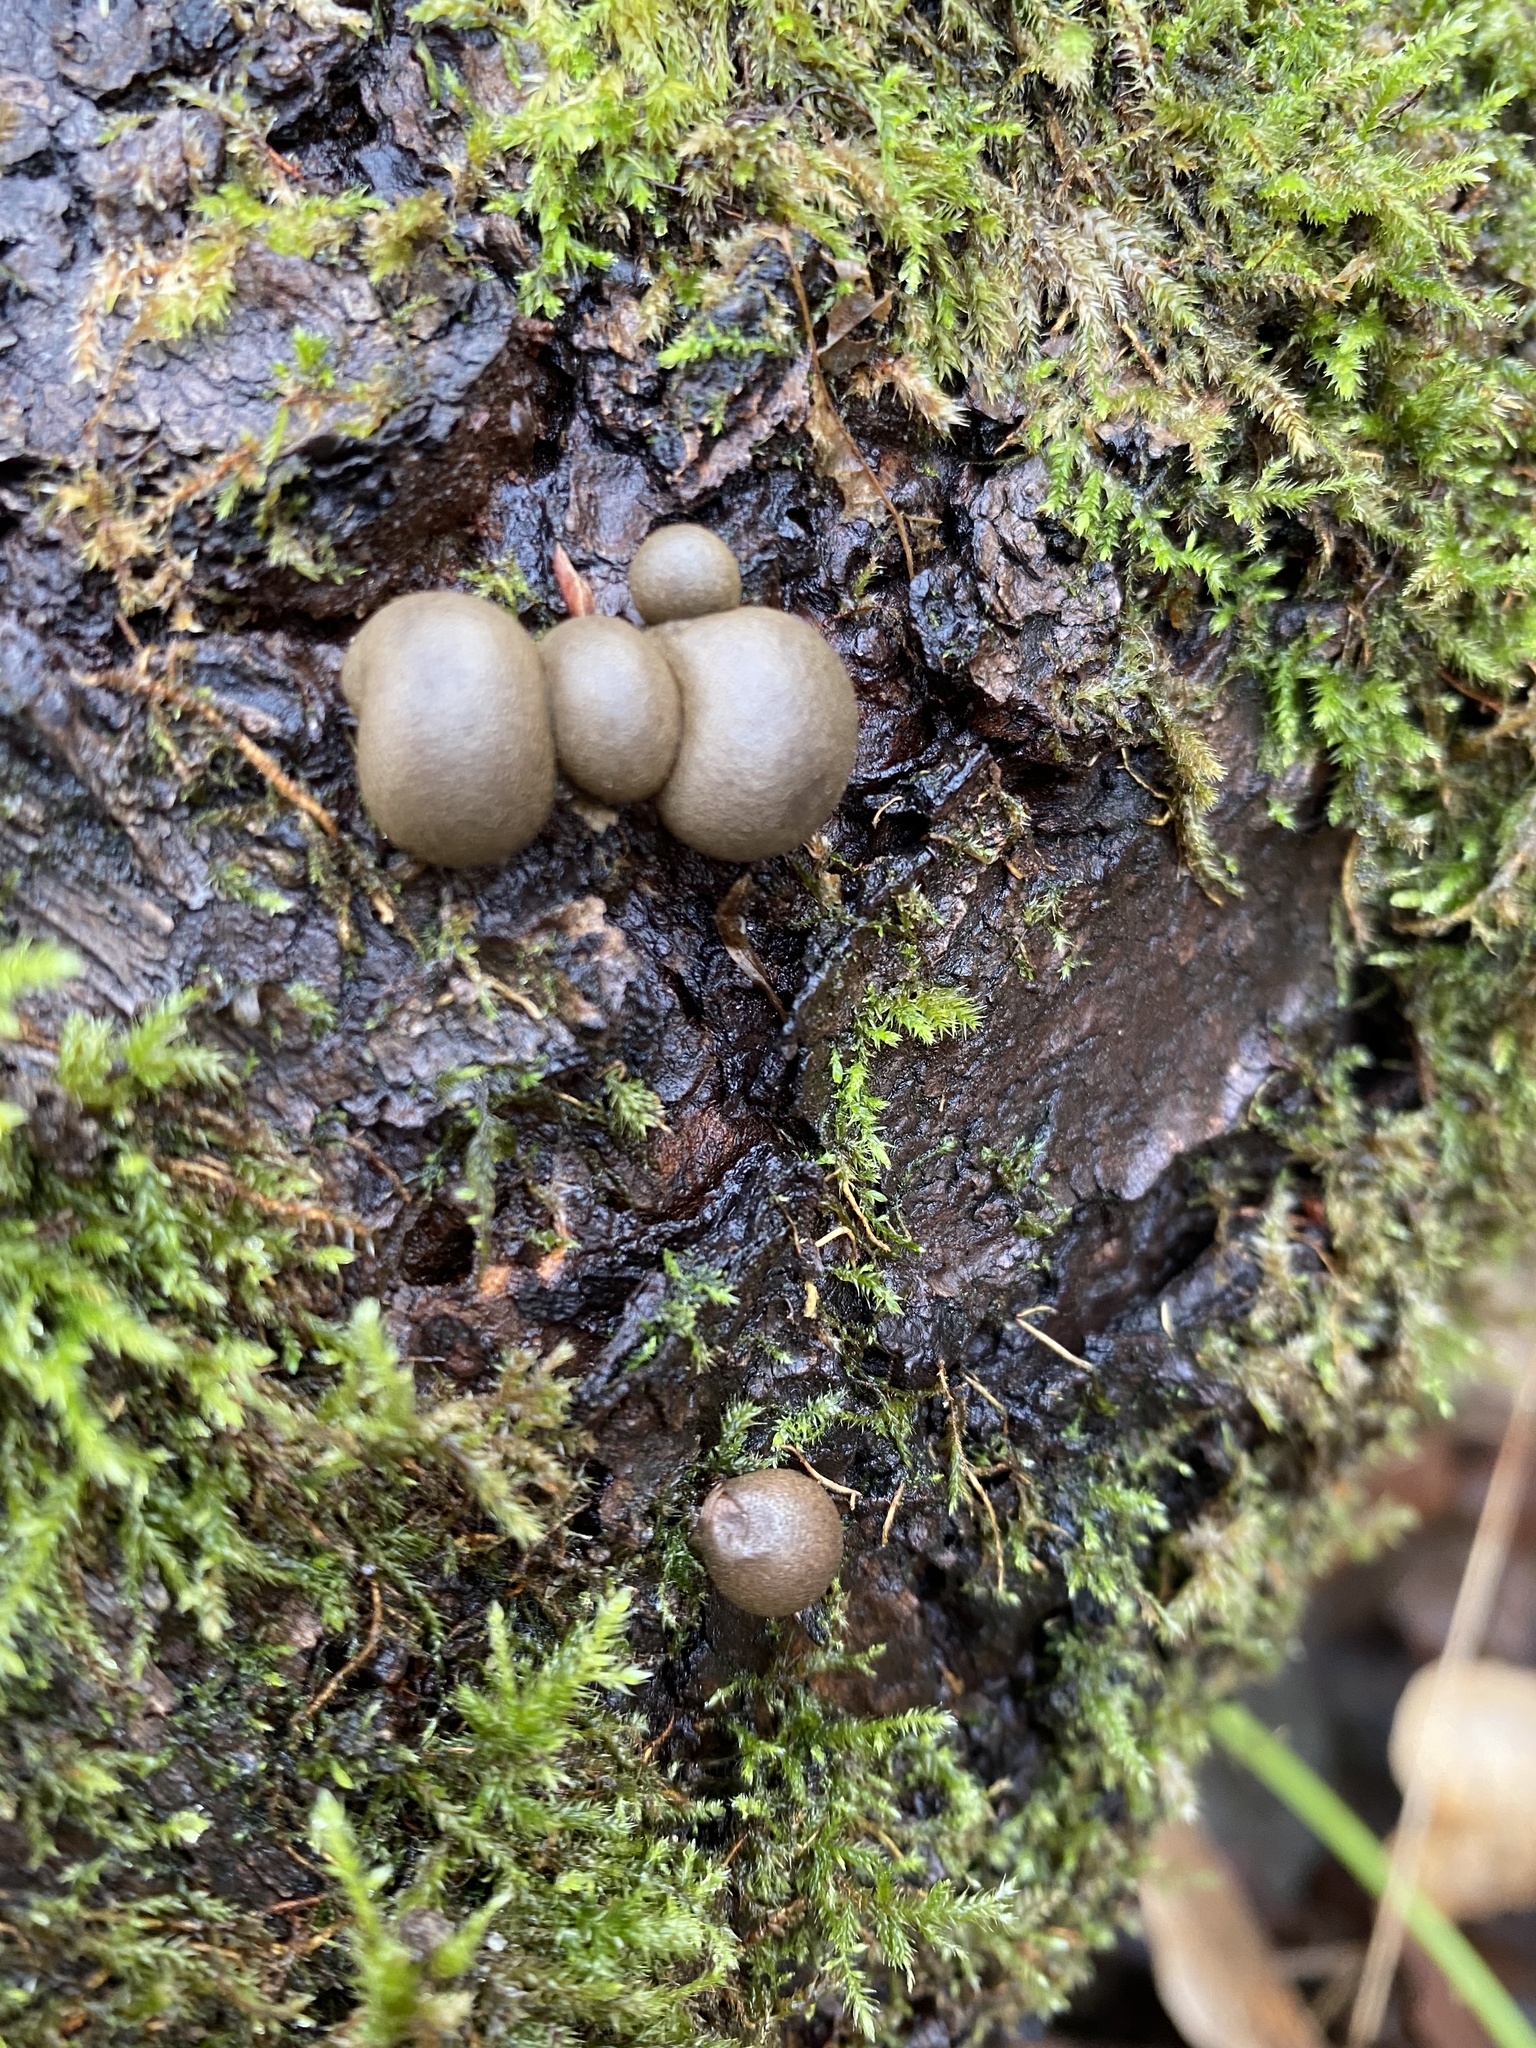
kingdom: Protozoa
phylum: Mycetozoa
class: Myxomycetes
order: Cribrariales
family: Tubiferaceae
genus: Lycogala
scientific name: Lycogala epidendrum
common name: Wolf's milk
